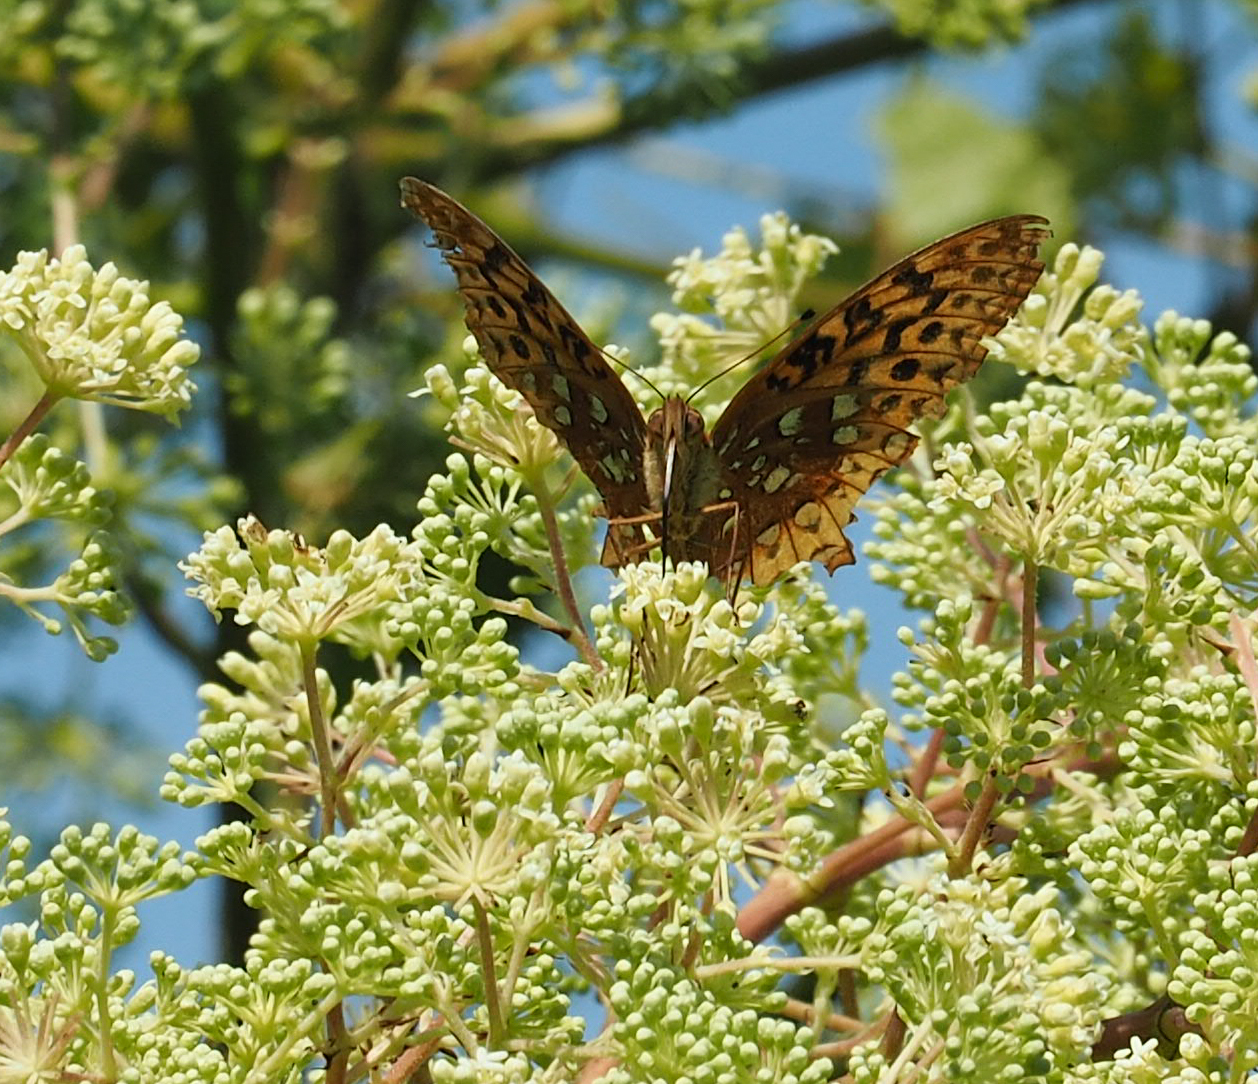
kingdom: Animalia
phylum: Arthropoda
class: Insecta
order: Lepidoptera
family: Nymphalidae
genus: Speyeria
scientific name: Speyeria cybele
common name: Great spangled fritillary
